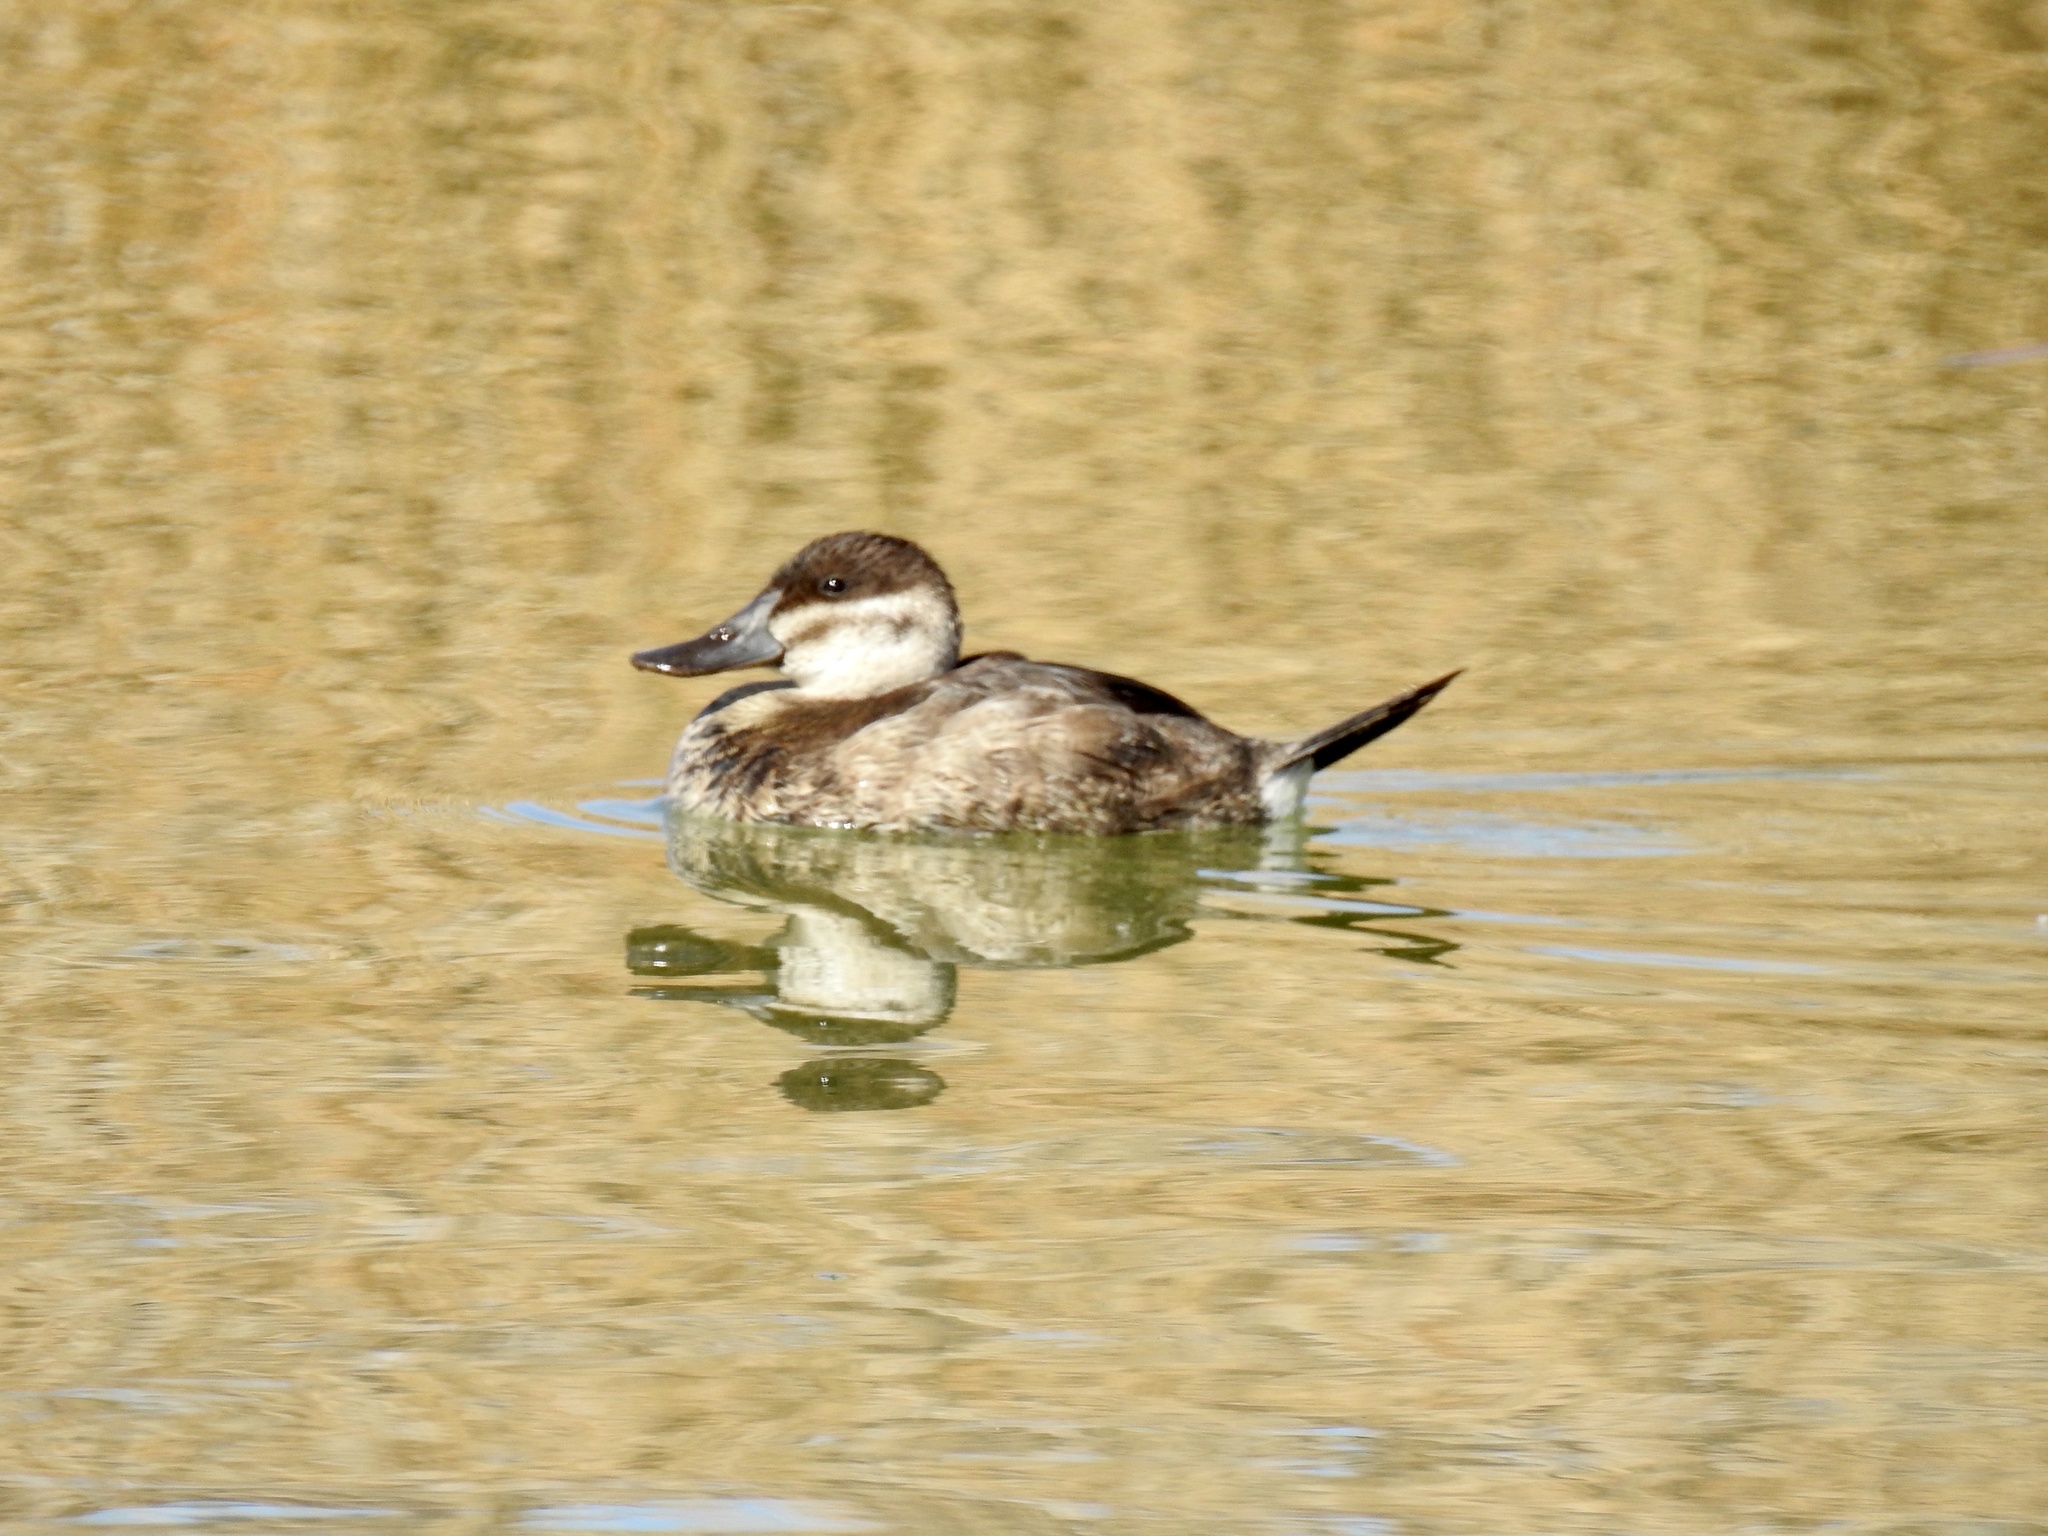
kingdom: Animalia
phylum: Chordata
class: Aves
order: Anseriformes
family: Anatidae
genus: Oxyura
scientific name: Oxyura jamaicensis
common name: Ruddy duck
